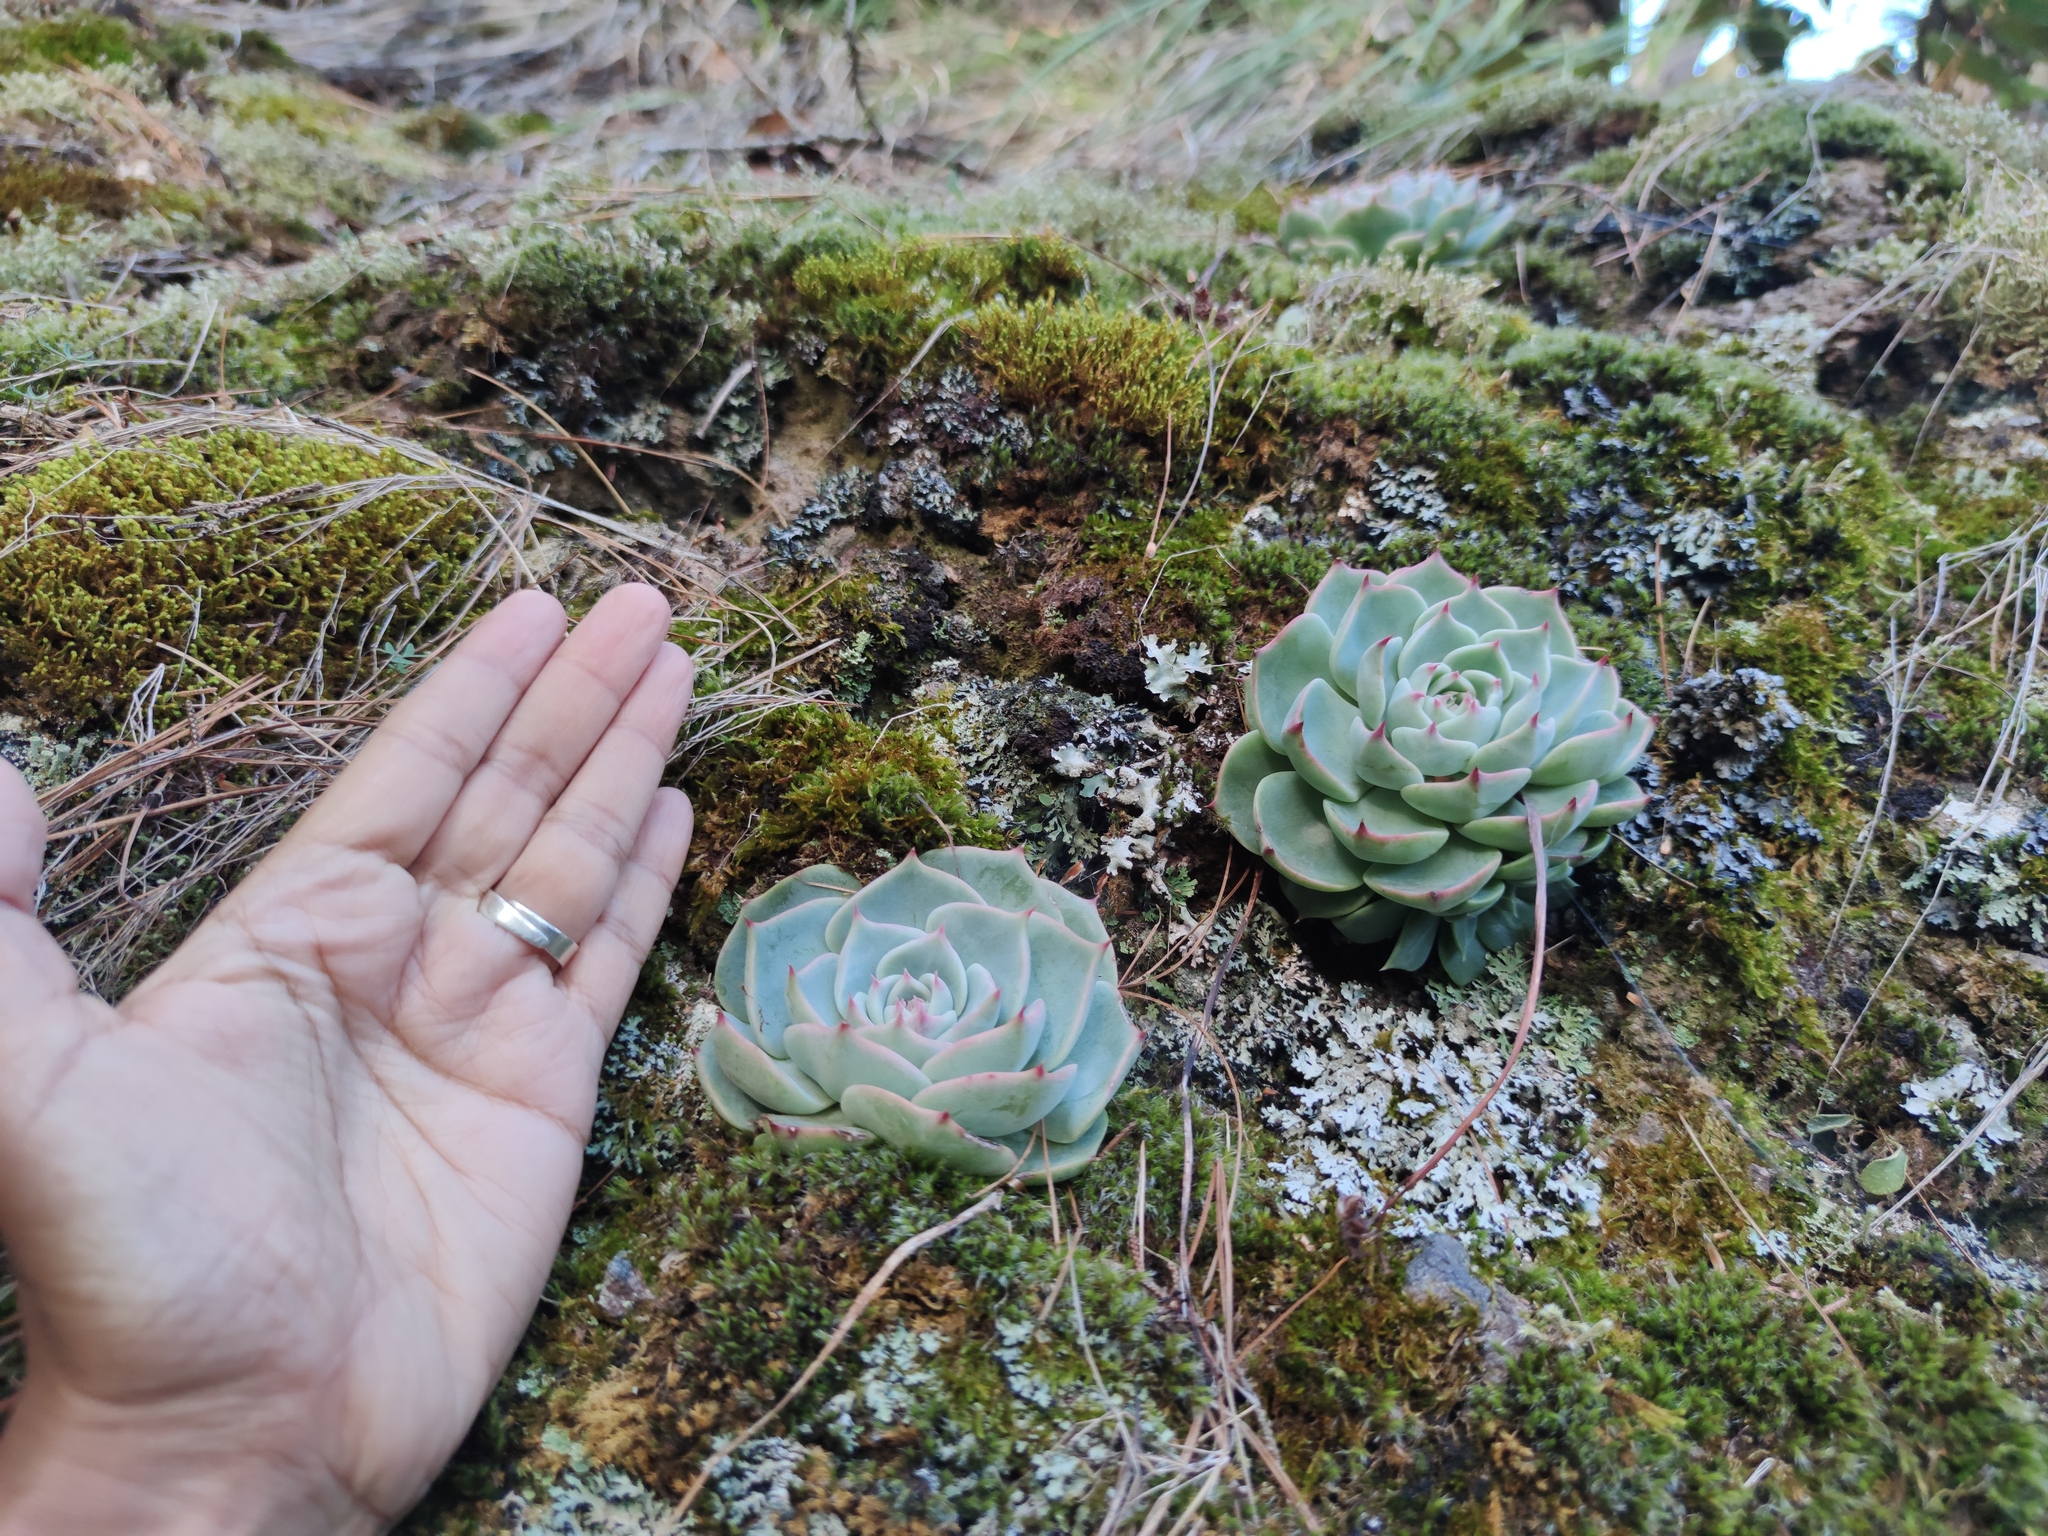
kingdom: Plantae
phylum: Tracheophyta
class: Magnoliopsida
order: Saxifragales
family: Crassulaceae
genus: Echeveria
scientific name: Echeveria chihuahuaensis
